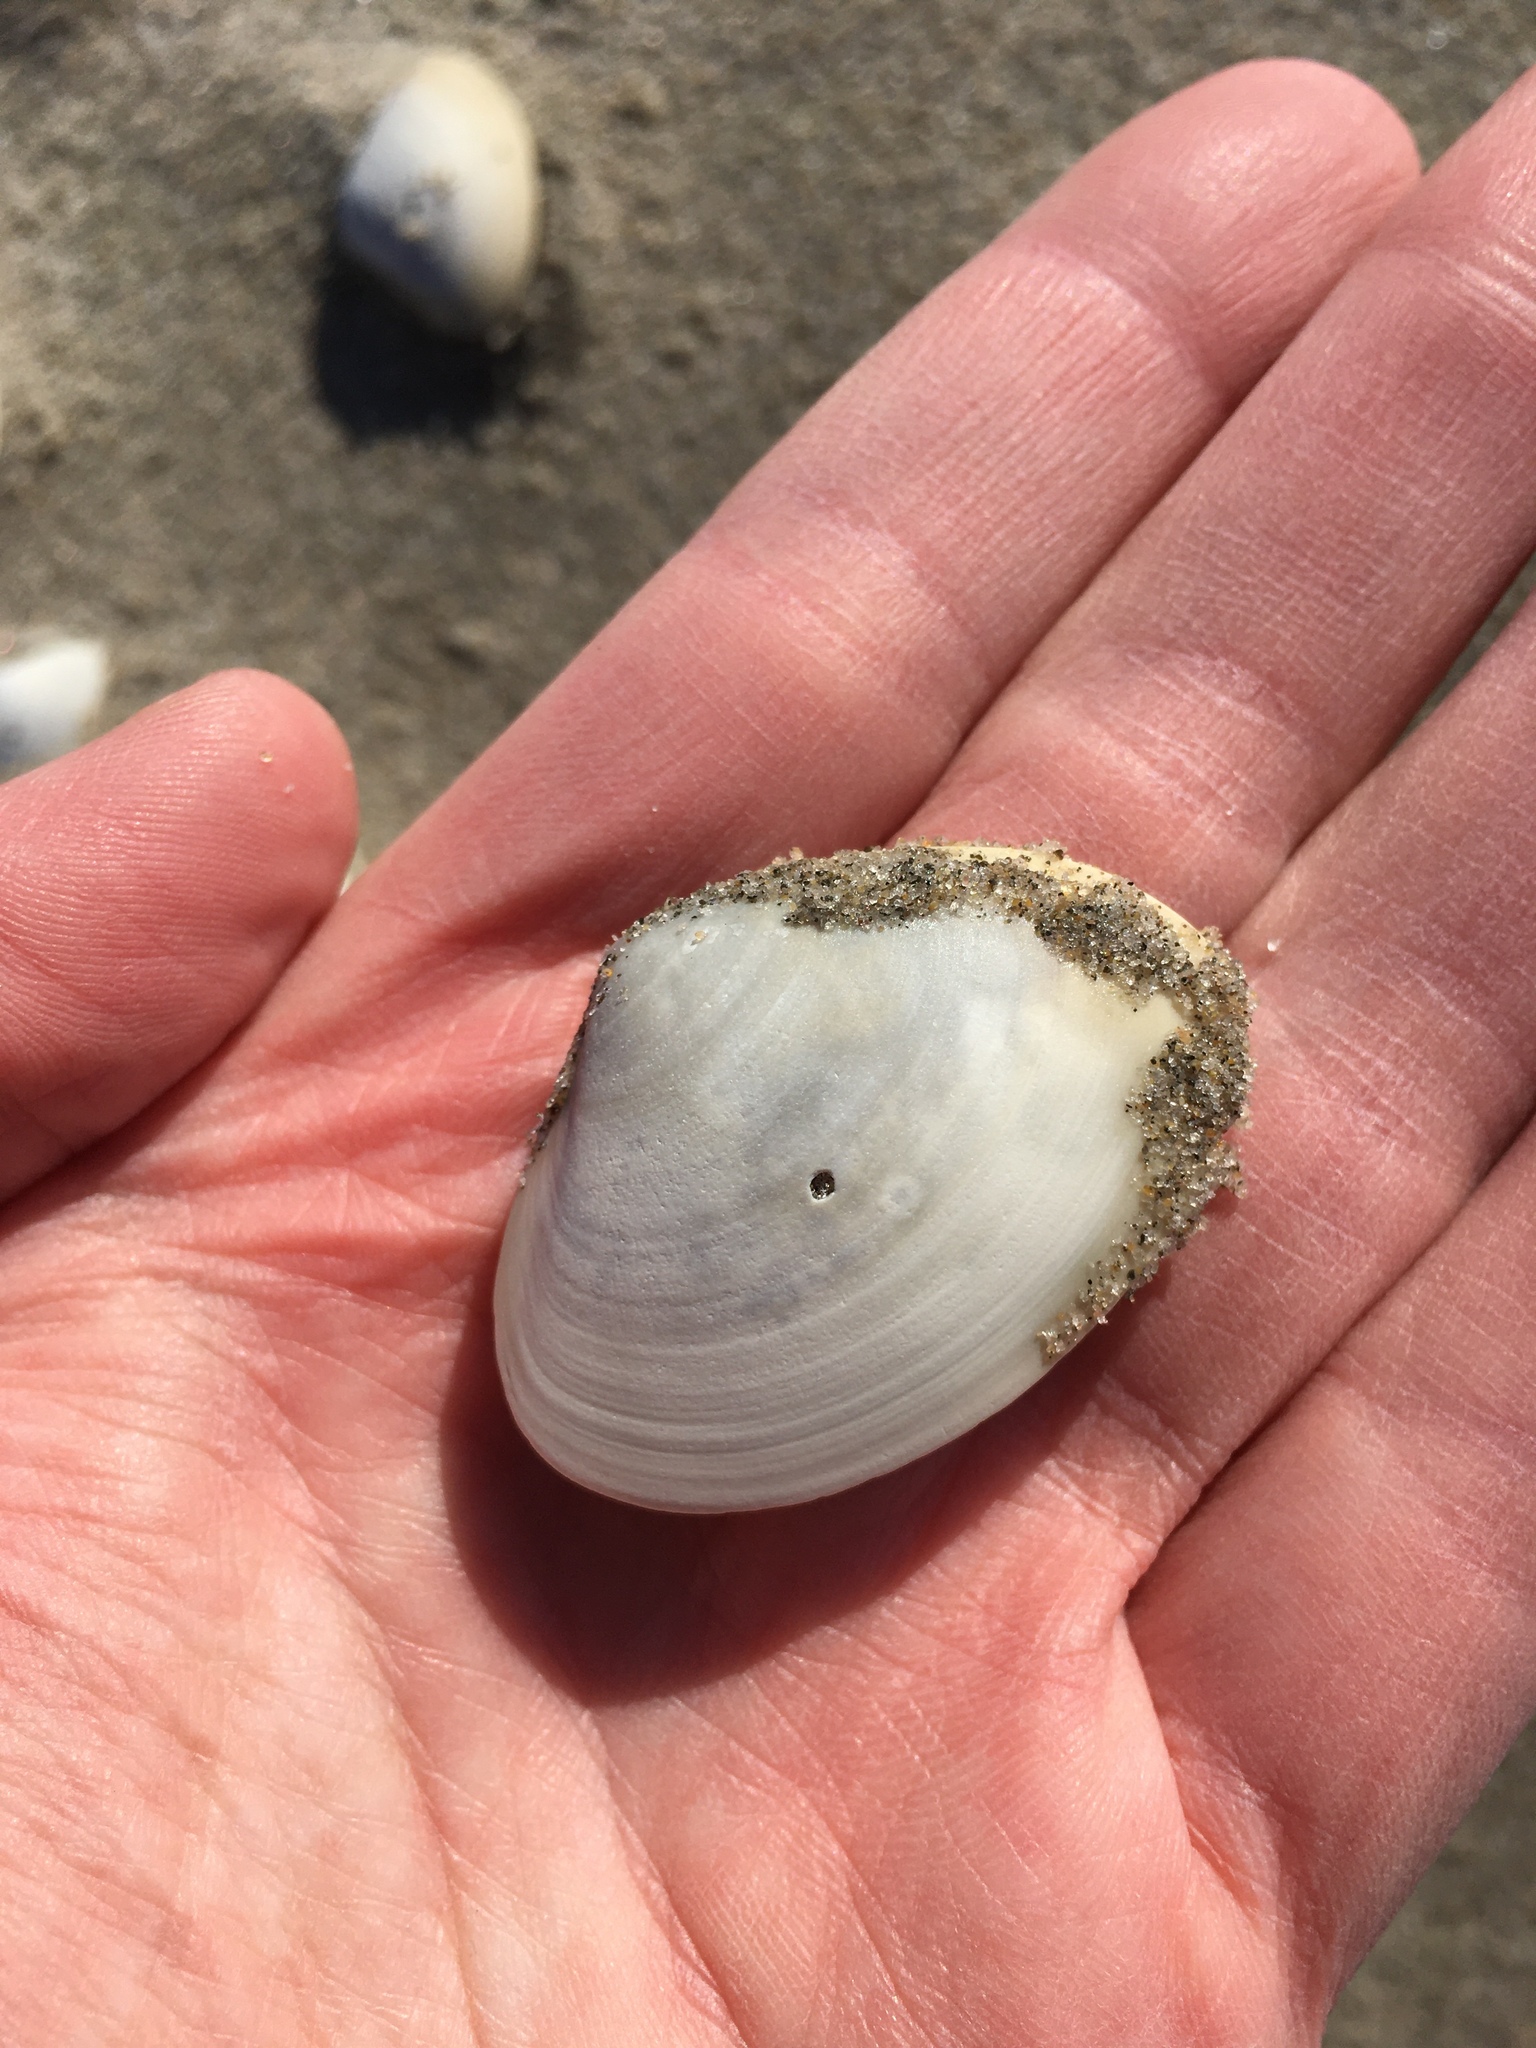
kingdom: Animalia
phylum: Mollusca
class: Bivalvia
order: Venerida
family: Mactridae
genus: Spisula
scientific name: Spisula solidissima
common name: Atlantic surf clam
